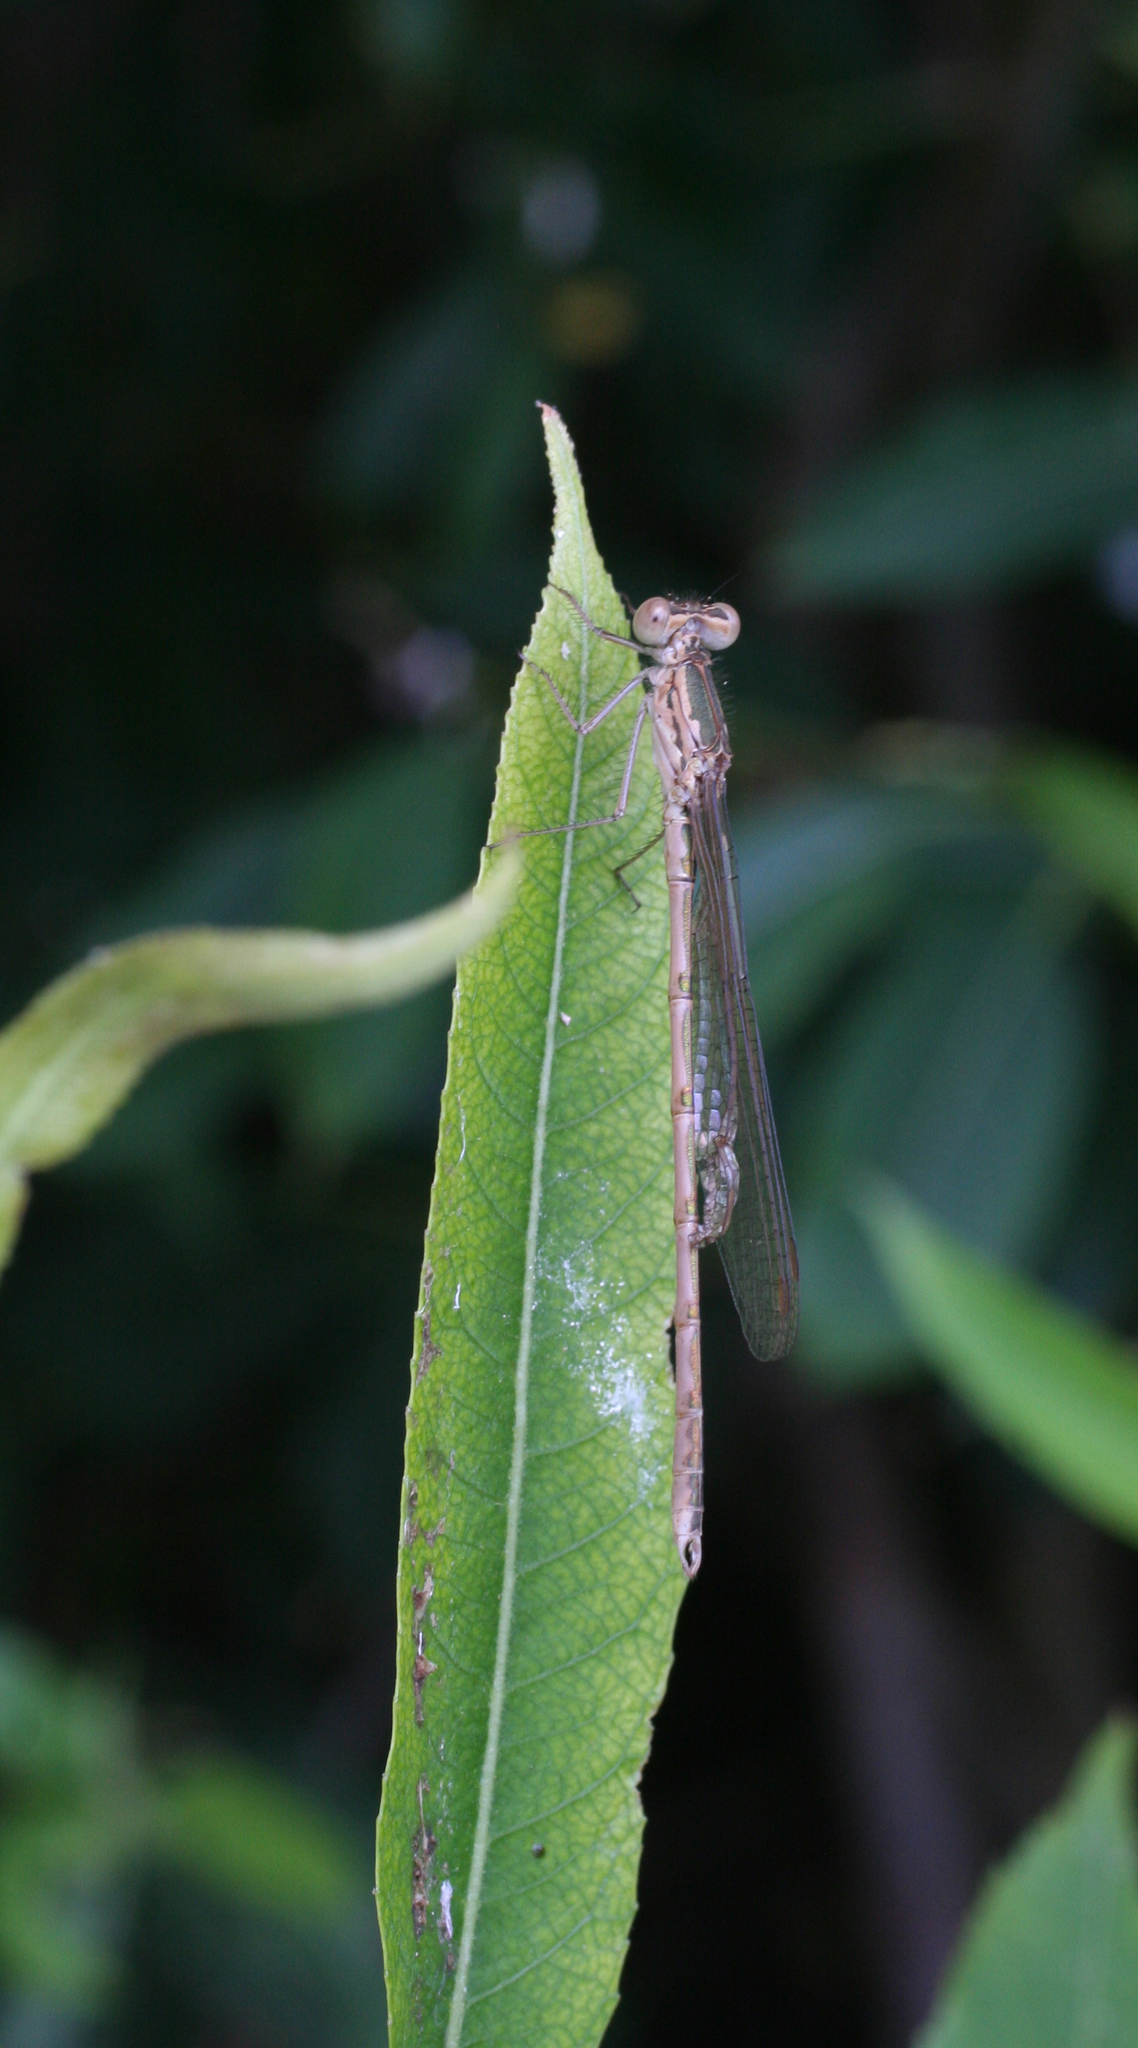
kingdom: Animalia
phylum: Arthropoda
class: Insecta
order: Odonata
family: Lestidae
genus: Sympecma
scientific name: Sympecma paedisca
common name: Siberian winter damsel
